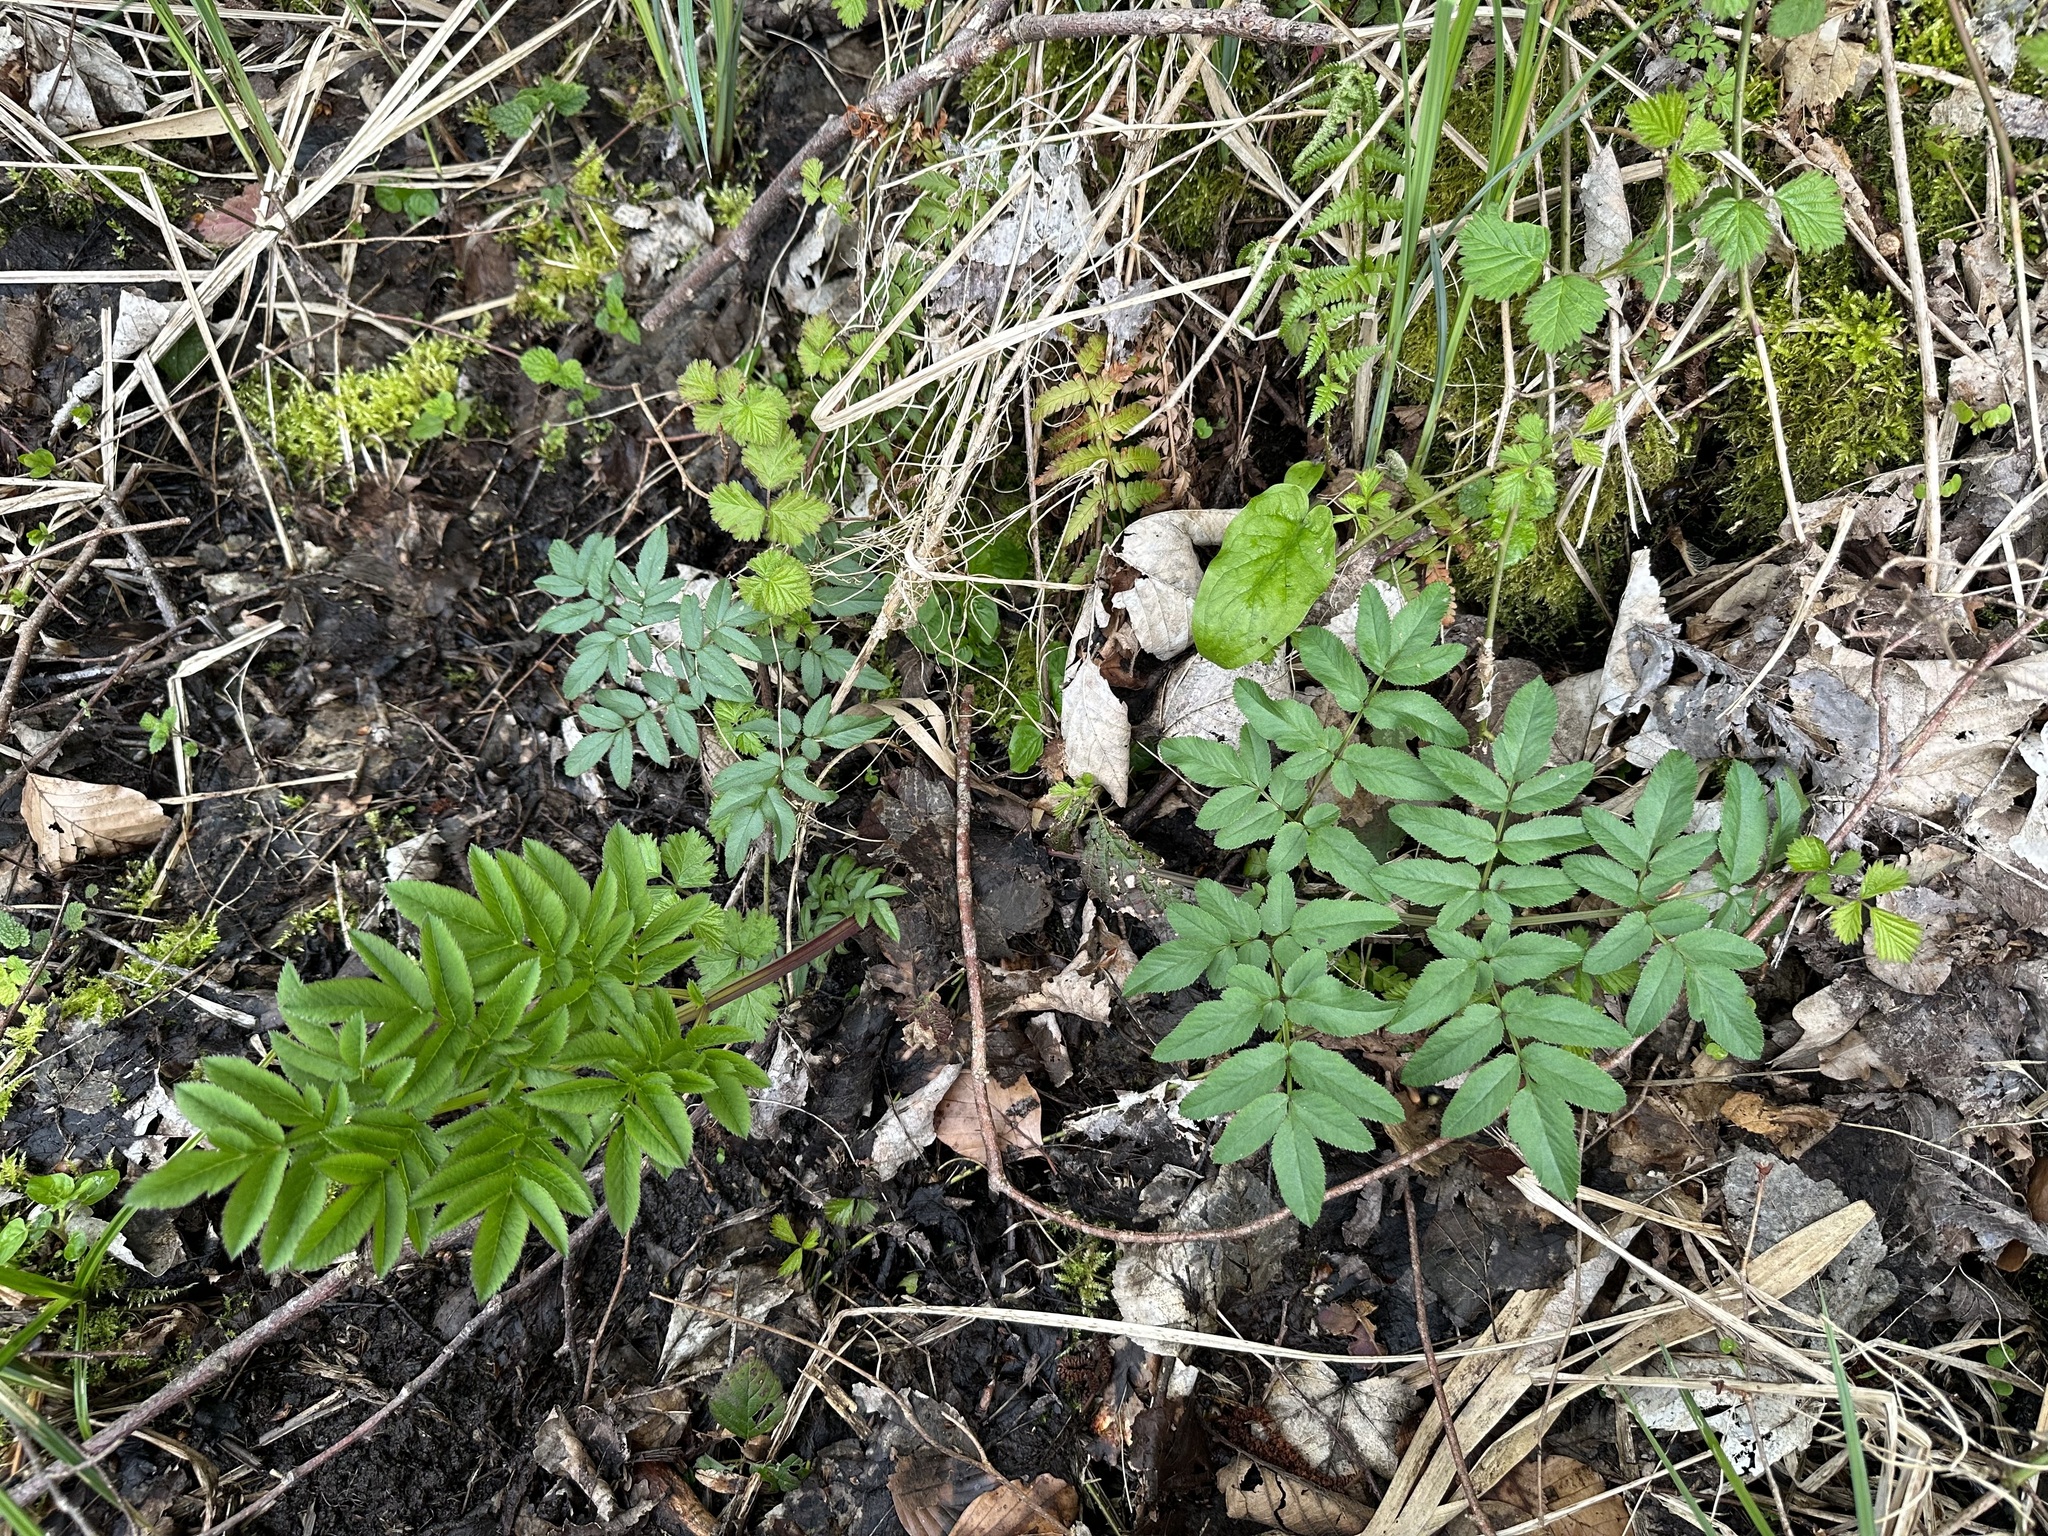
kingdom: Plantae
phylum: Tracheophyta
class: Magnoliopsida
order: Apiales
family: Apiaceae
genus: Angelica
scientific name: Angelica sylvestris
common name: Wild angelica
